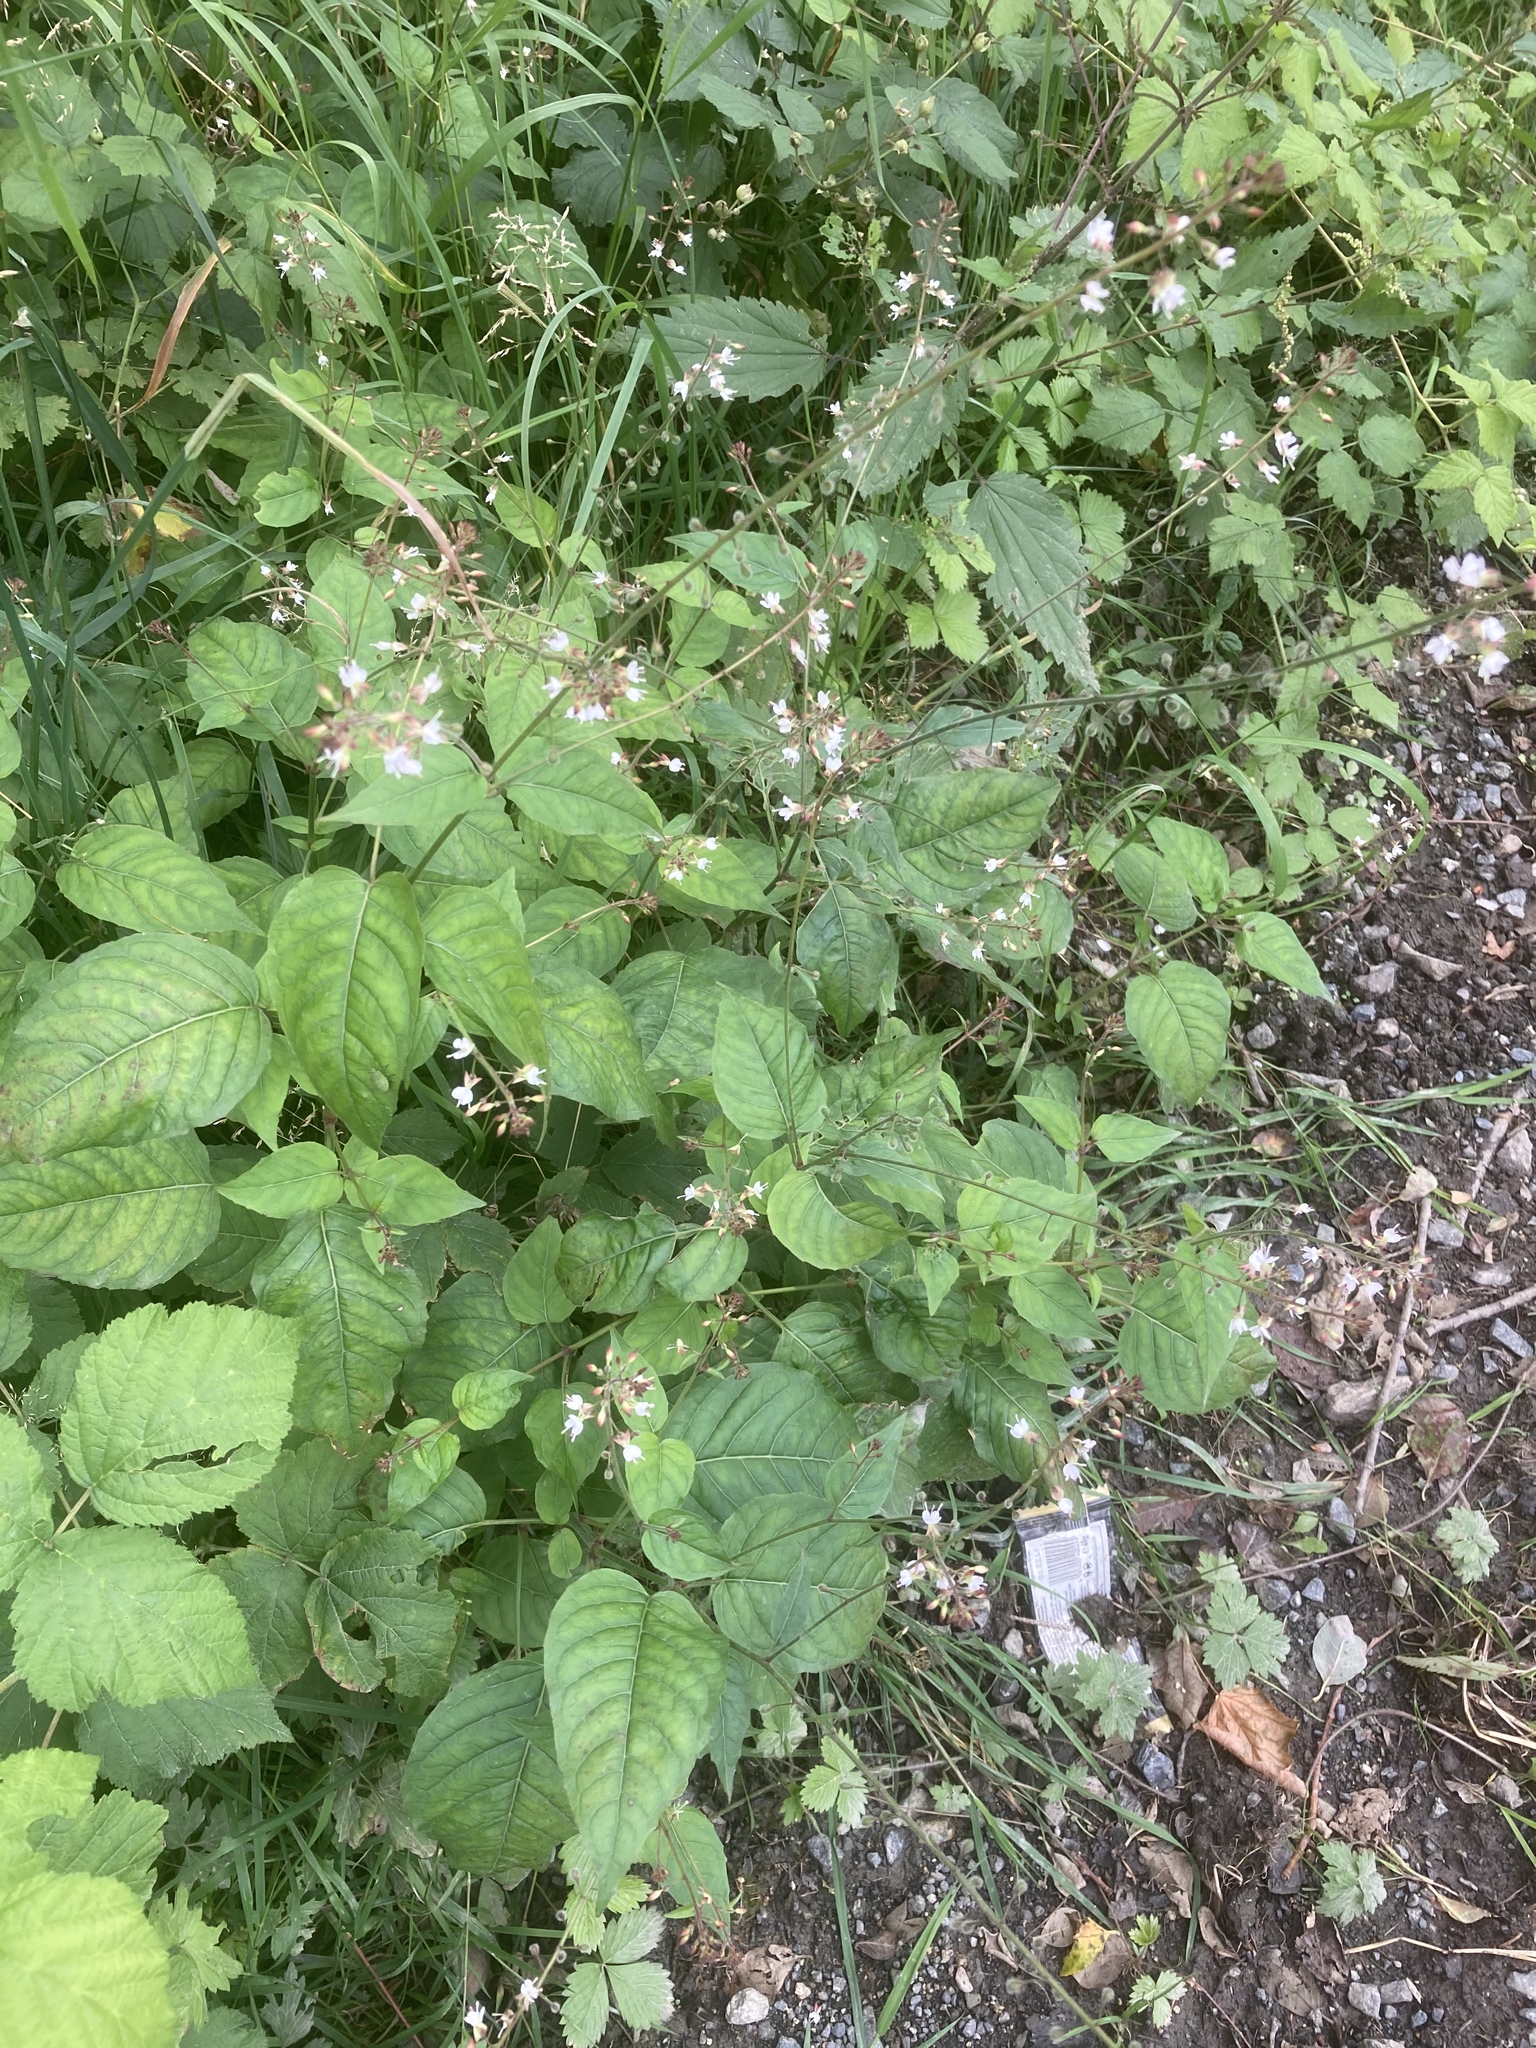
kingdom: Plantae
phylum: Tracheophyta
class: Magnoliopsida
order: Myrtales
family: Onagraceae
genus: Circaea
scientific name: Circaea lutetiana
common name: Enchanter's-nightshade
